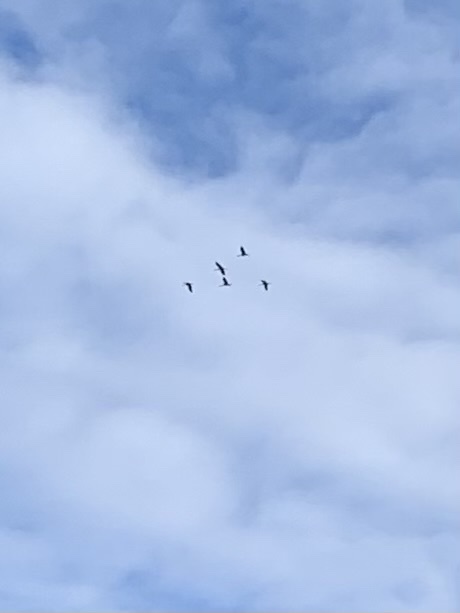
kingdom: Animalia
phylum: Chordata
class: Aves
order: Gruiformes
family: Gruidae
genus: Grus
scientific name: Grus grus
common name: Common crane
